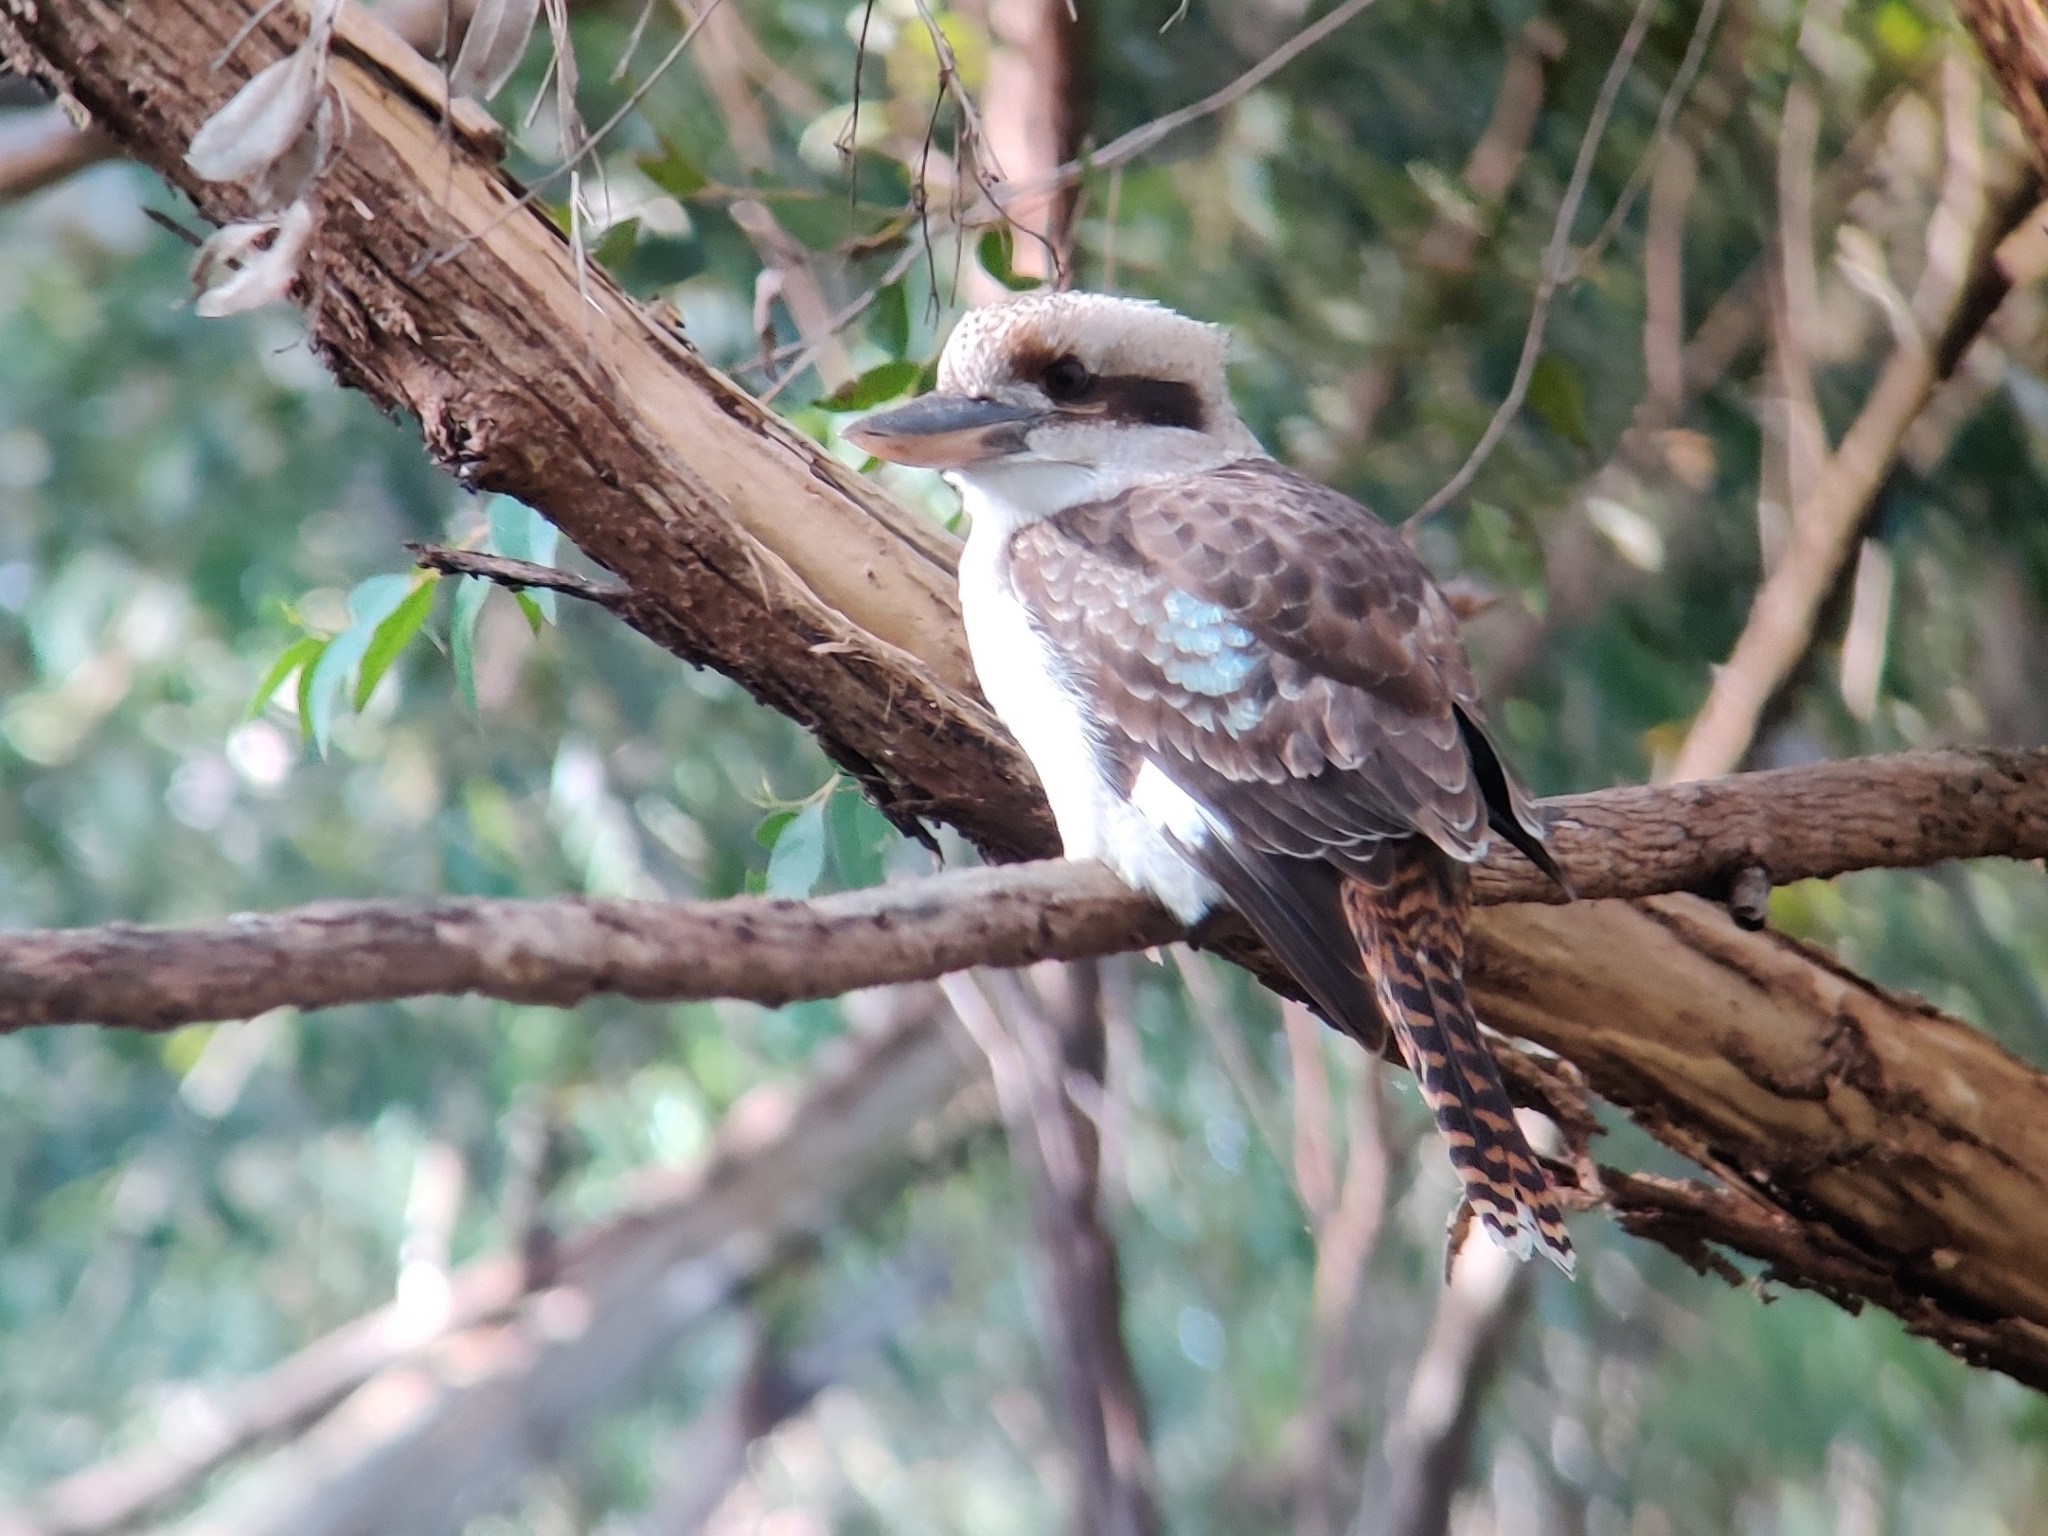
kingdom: Animalia
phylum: Chordata
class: Aves
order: Coraciiformes
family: Alcedinidae
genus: Dacelo
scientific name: Dacelo novaeguineae
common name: Laughing kookaburra
